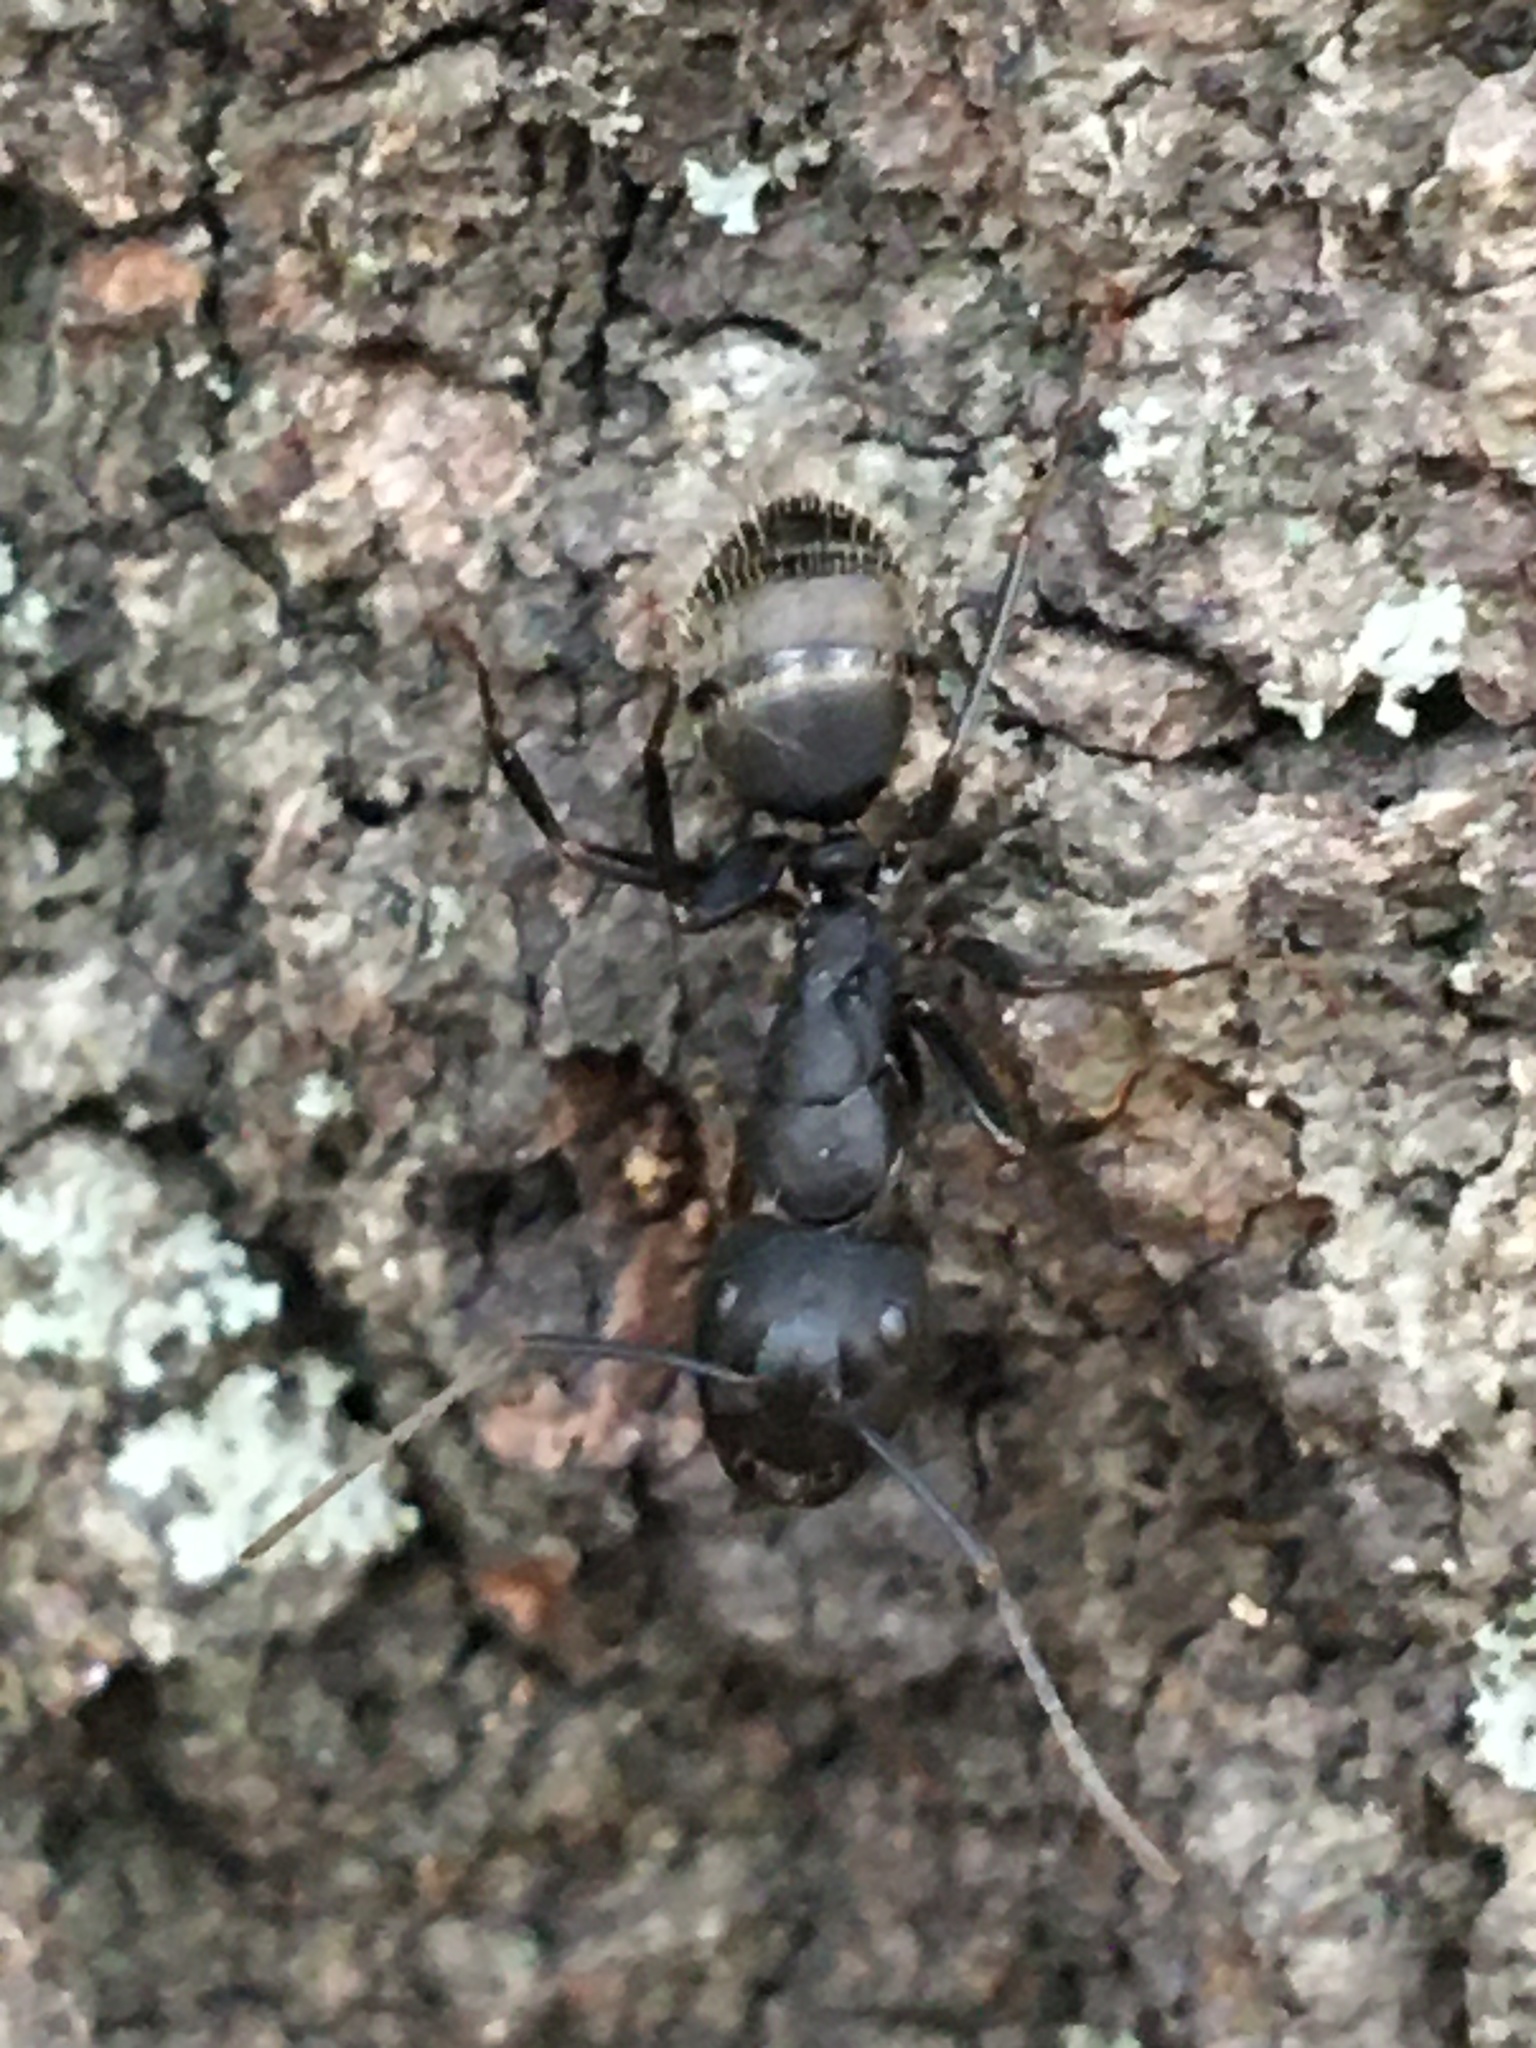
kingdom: Animalia
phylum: Arthropoda
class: Insecta
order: Hymenoptera
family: Formicidae
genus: Camponotus
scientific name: Camponotus pennsylvanicus
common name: Black carpenter ant
